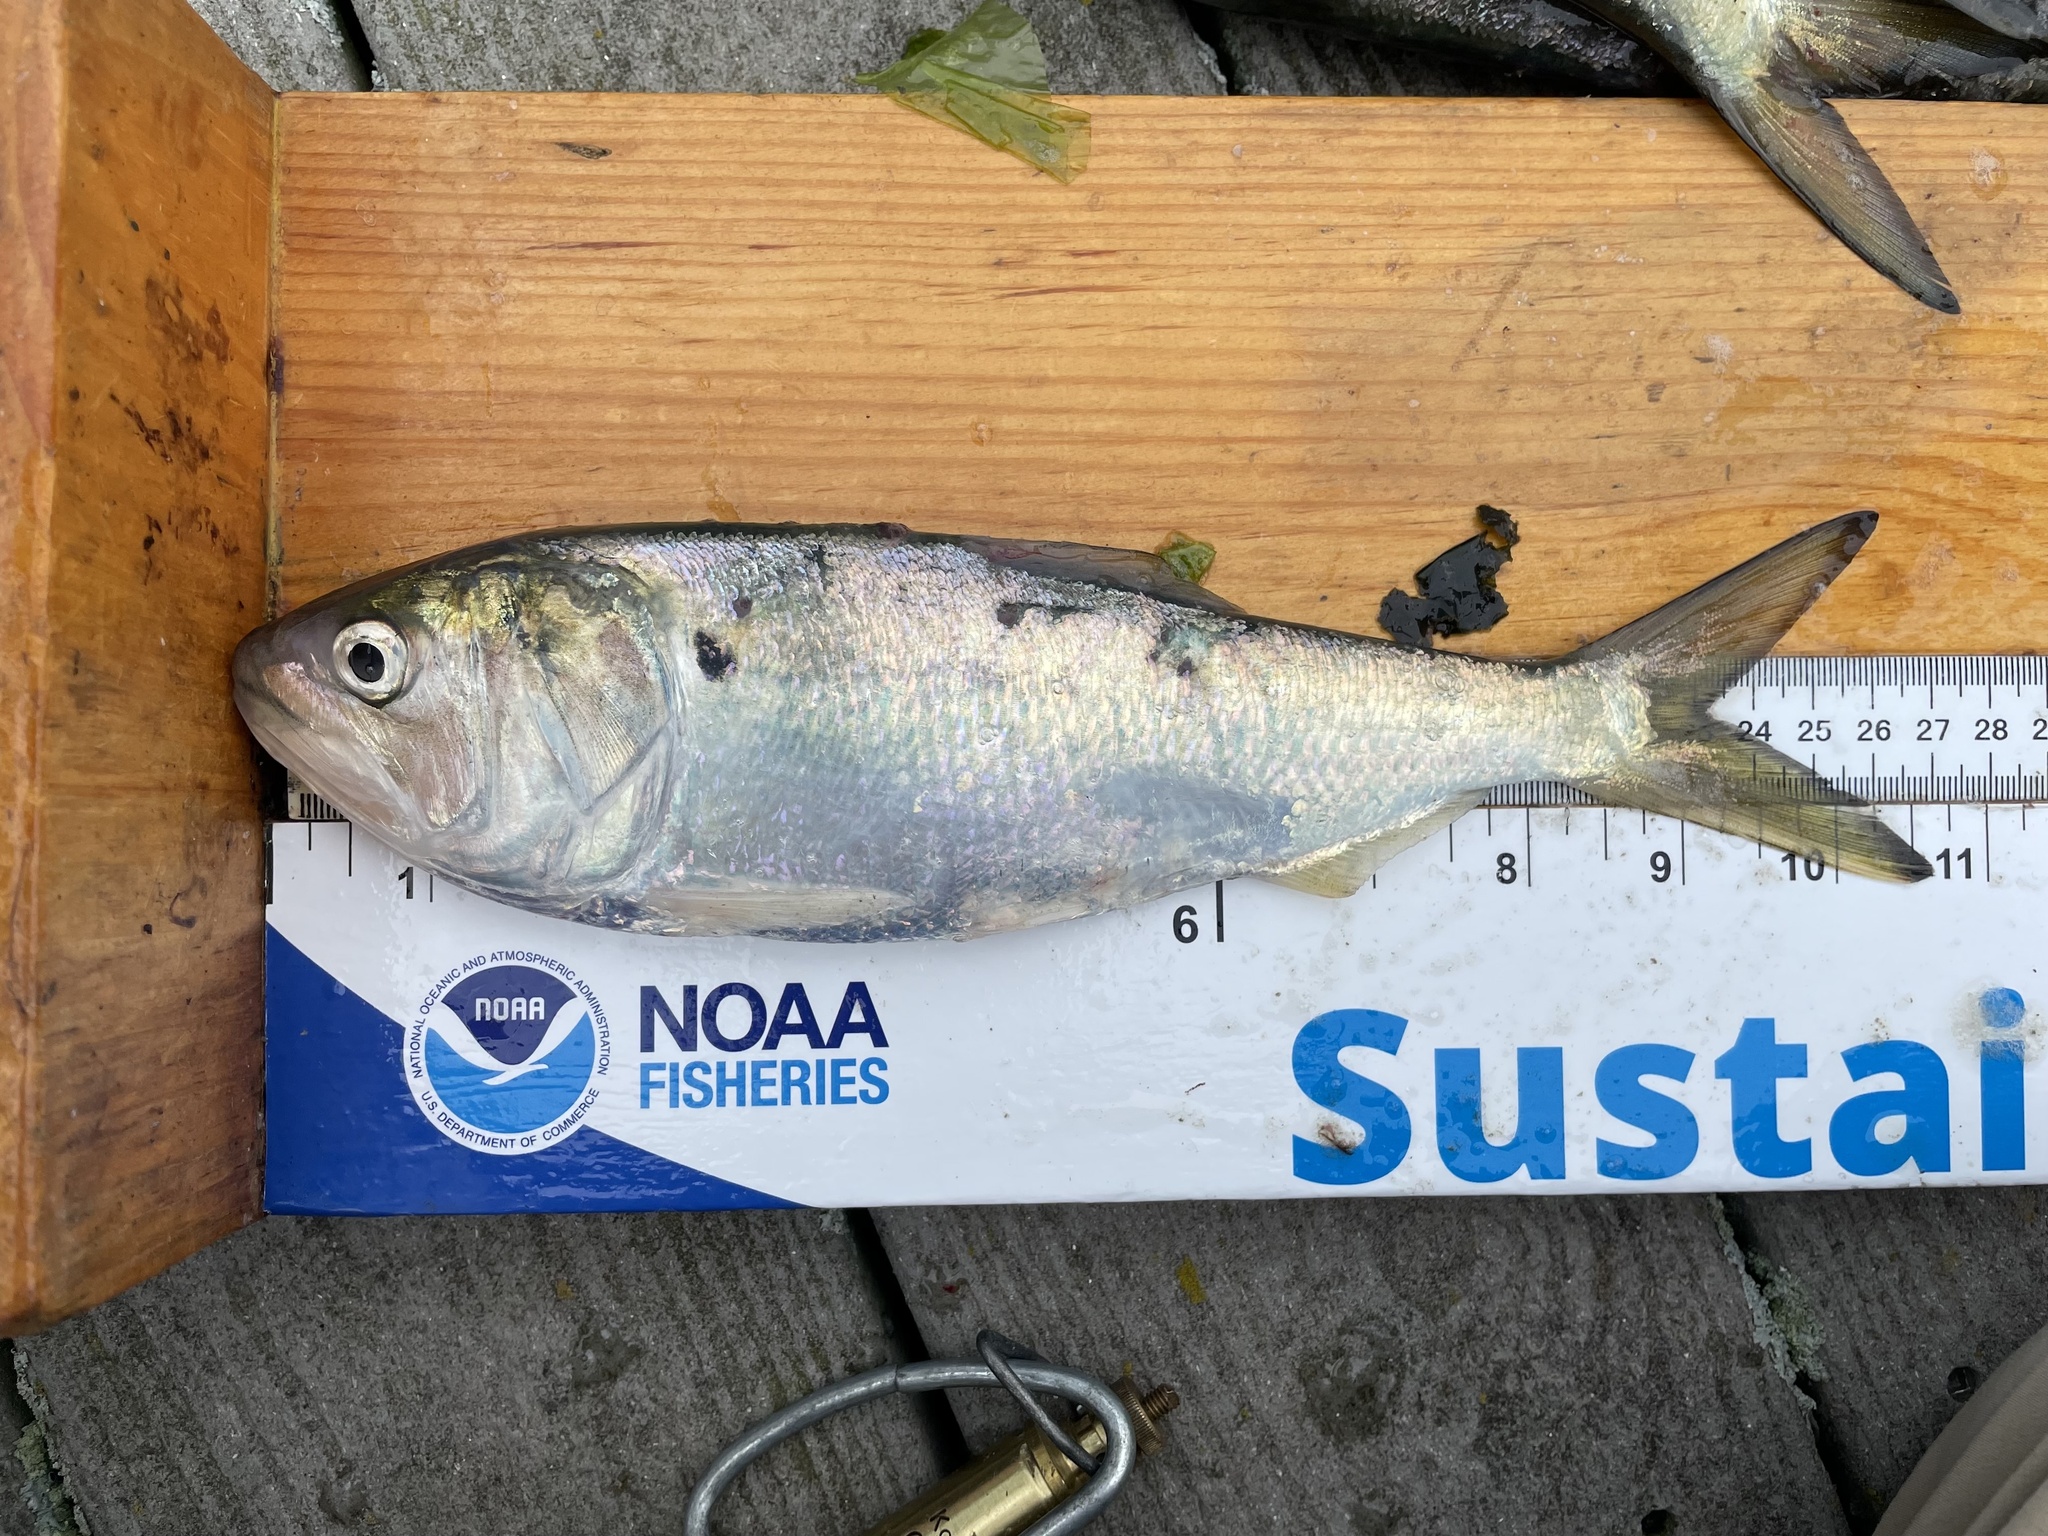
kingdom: Animalia
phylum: Chordata
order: Clupeiformes
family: Clupeidae
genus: Brevoortia
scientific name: Brevoortia tyrannus
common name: Atlantic menhaden
